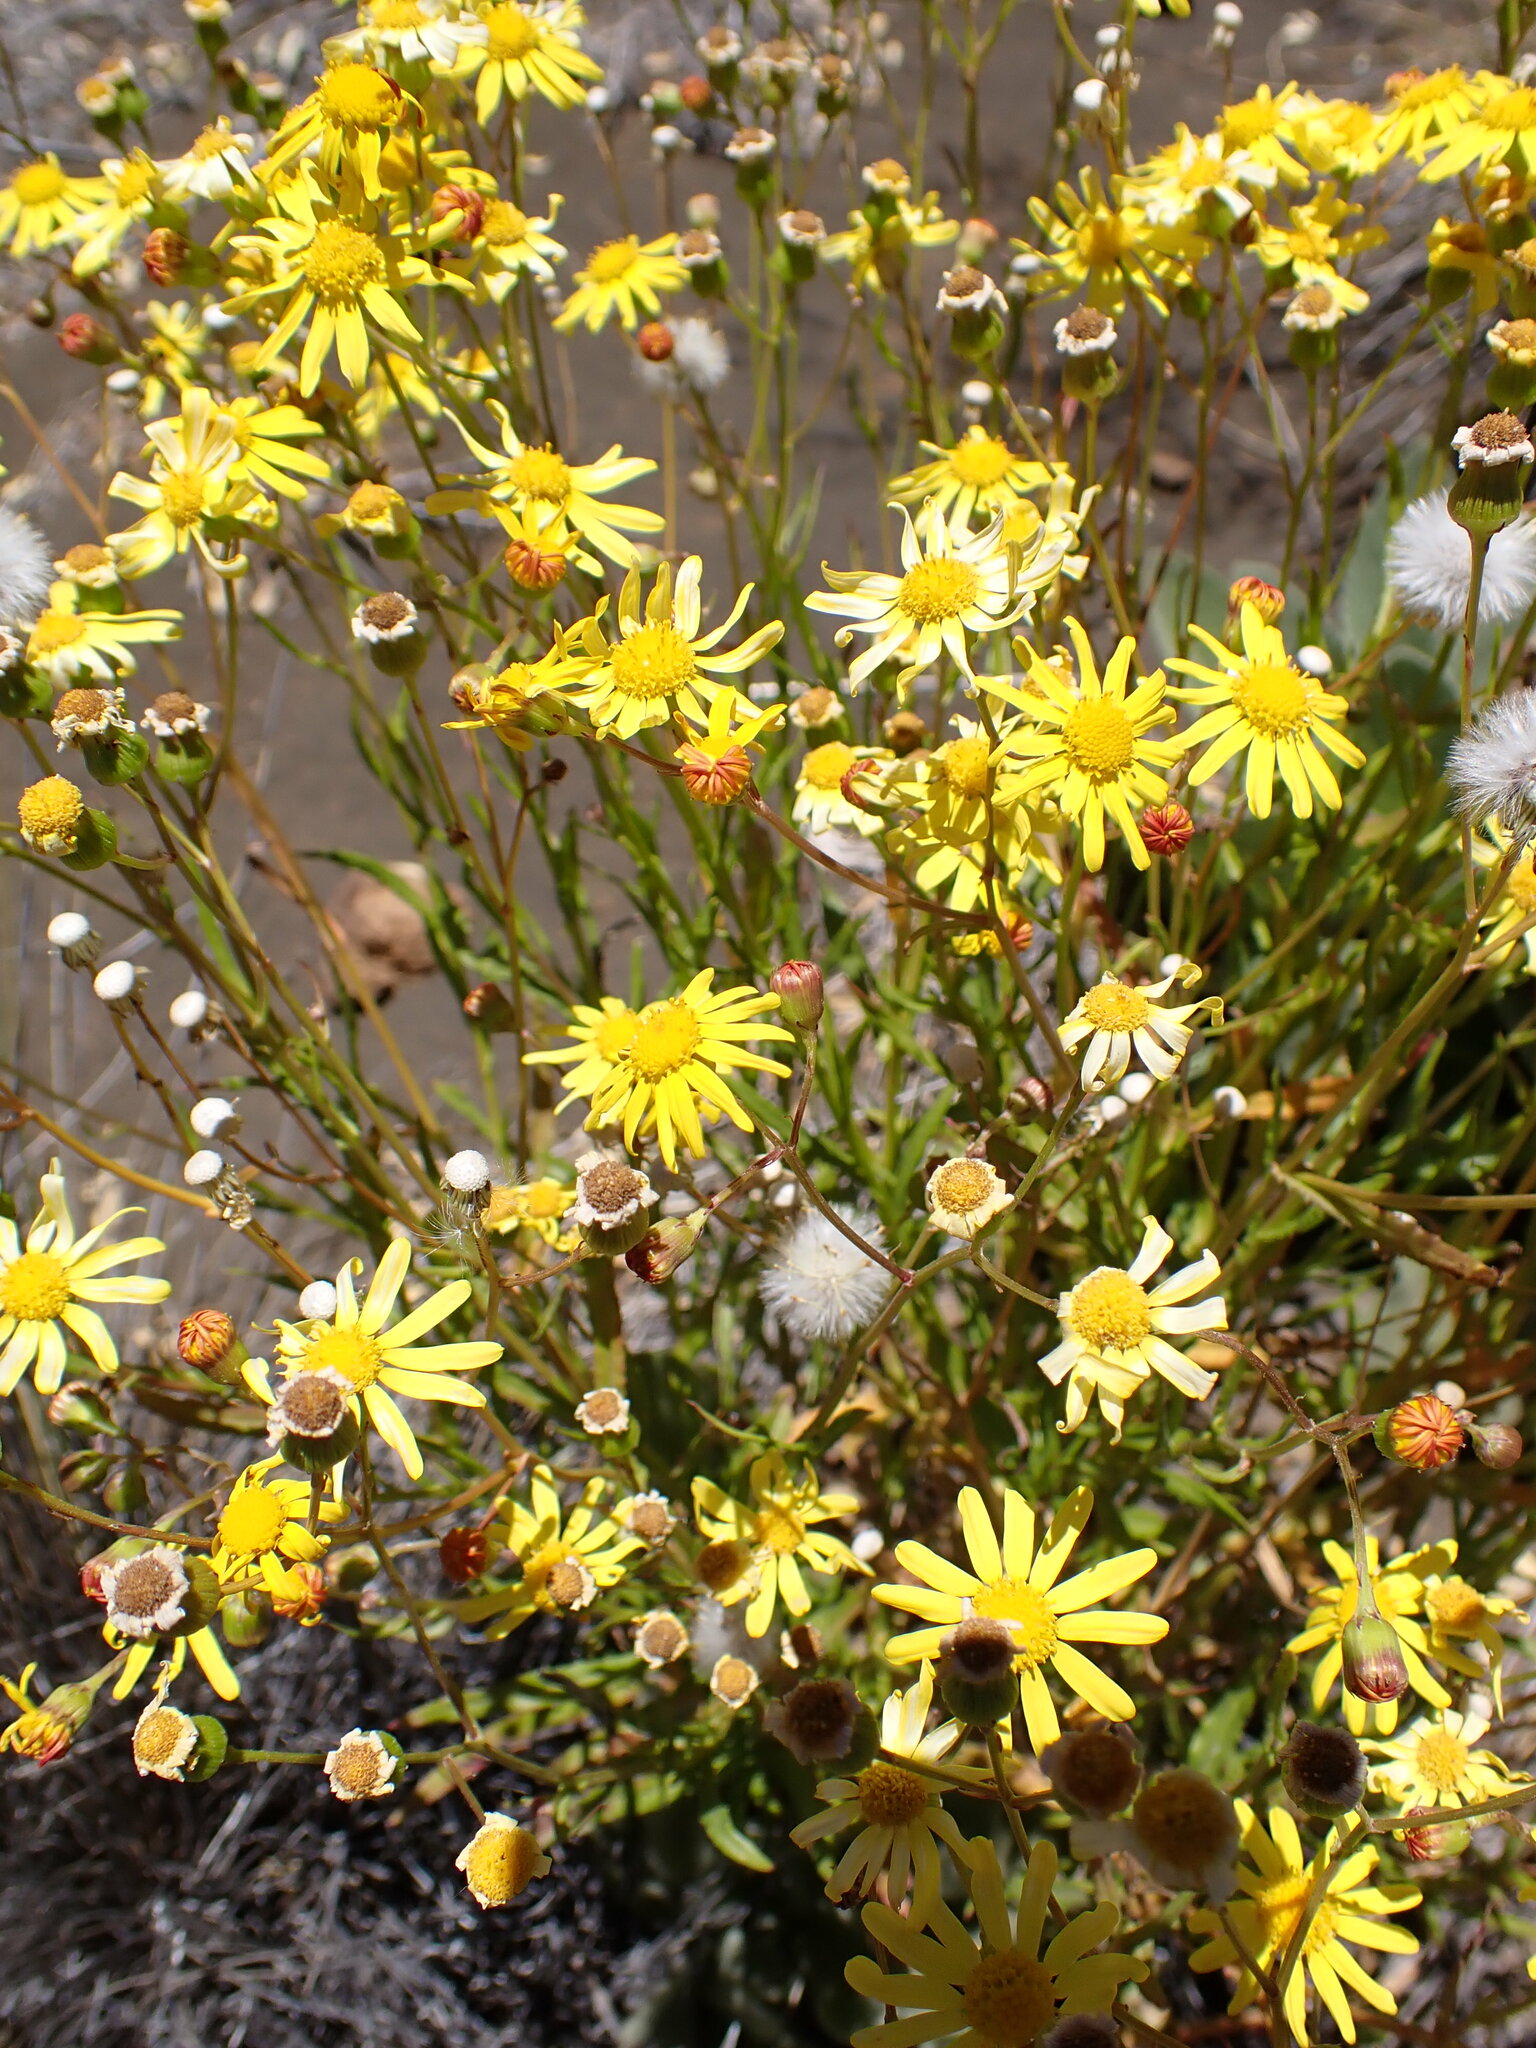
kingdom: Plantae
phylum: Tracheophyta
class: Magnoliopsida
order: Asterales
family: Asteraceae
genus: Senecio
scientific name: Senecio madagascariensis
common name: Madagascar ragwort
